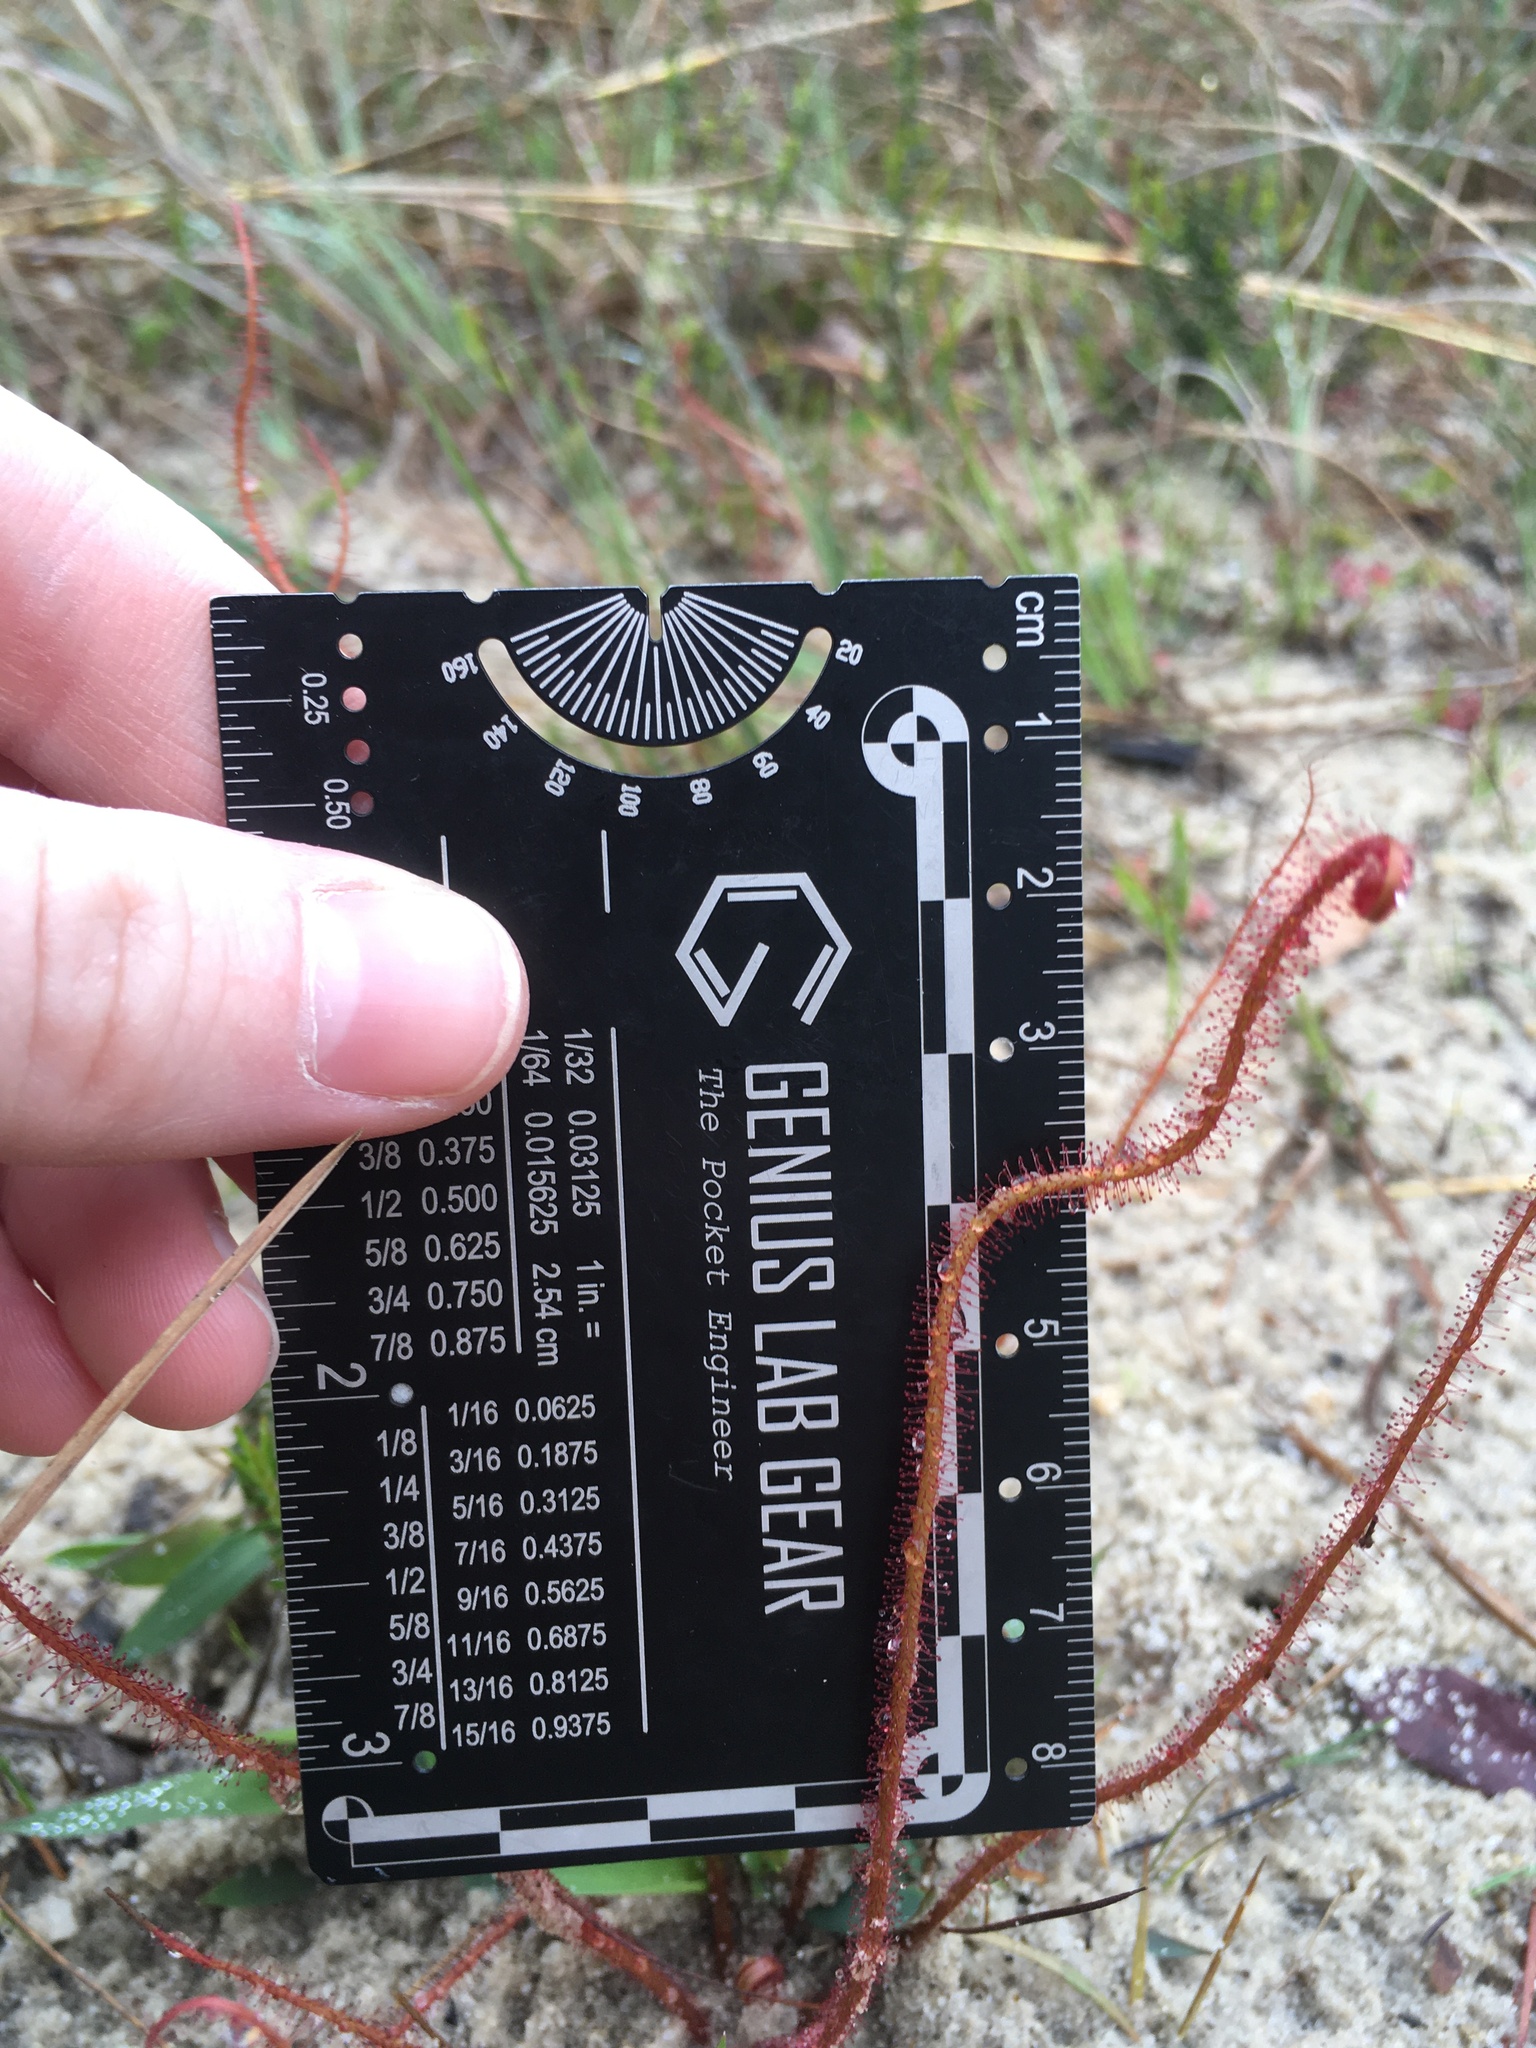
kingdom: Plantae
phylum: Tracheophyta
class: Magnoliopsida
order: Caryophyllales
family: Droseraceae
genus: Drosera
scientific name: Drosera filiformis
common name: Dew-thread
